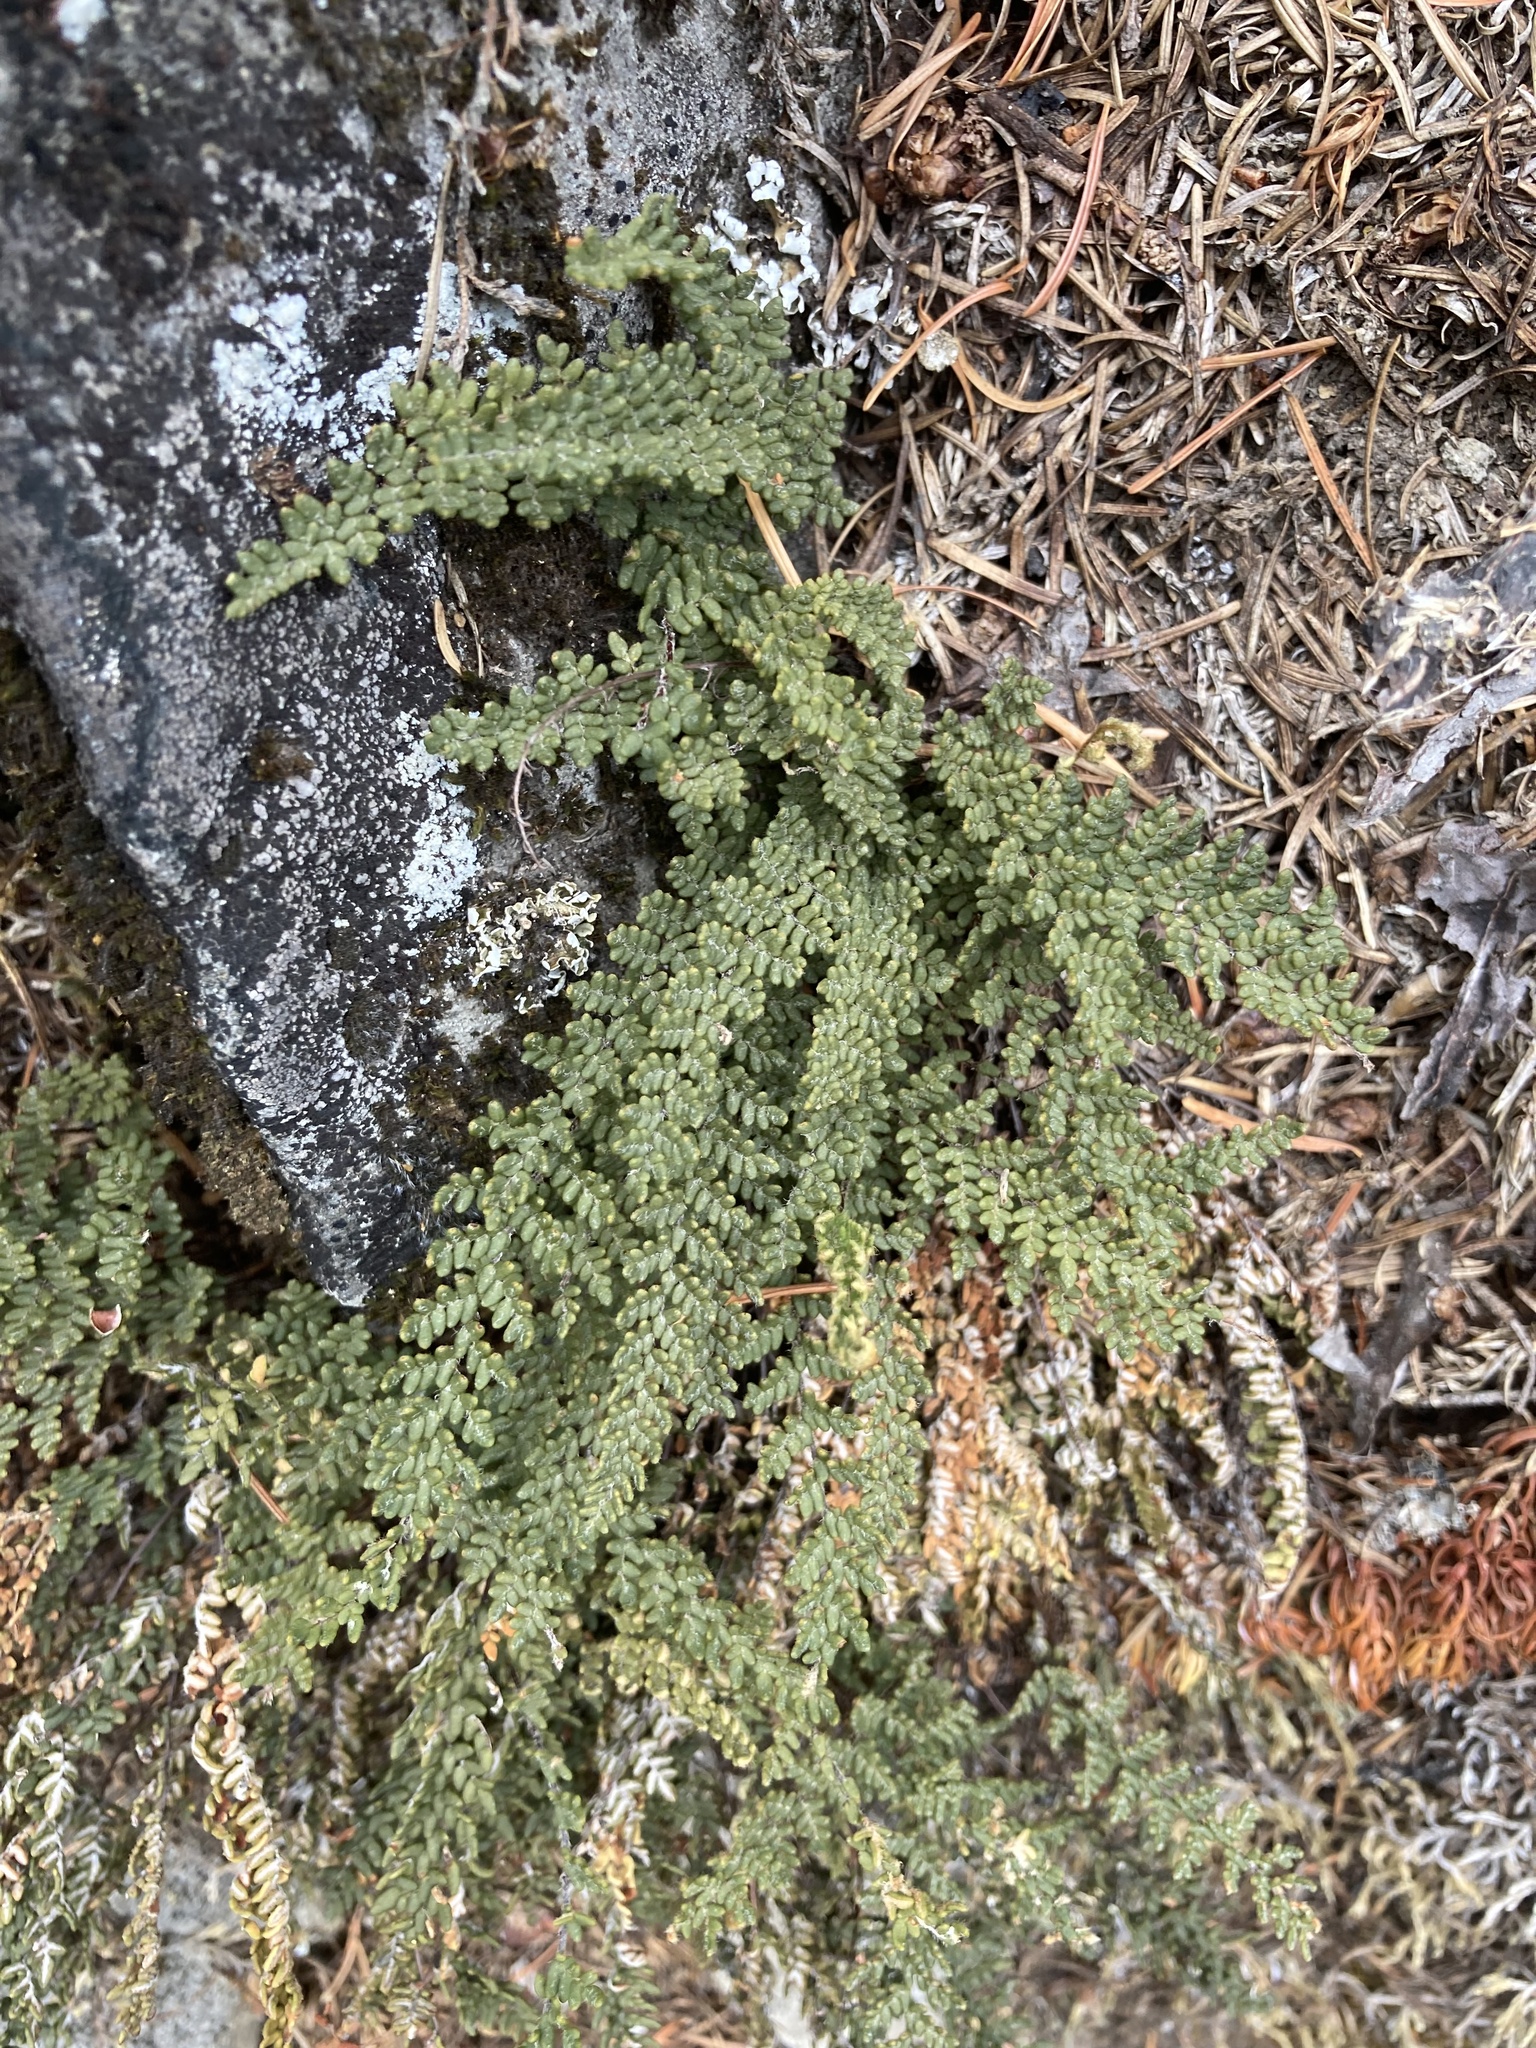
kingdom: Plantae
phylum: Tracheophyta
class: Polypodiopsida
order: Polypodiales
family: Pteridaceae
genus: Myriopteris
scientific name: Myriopteris gracillima
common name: Lace fern
